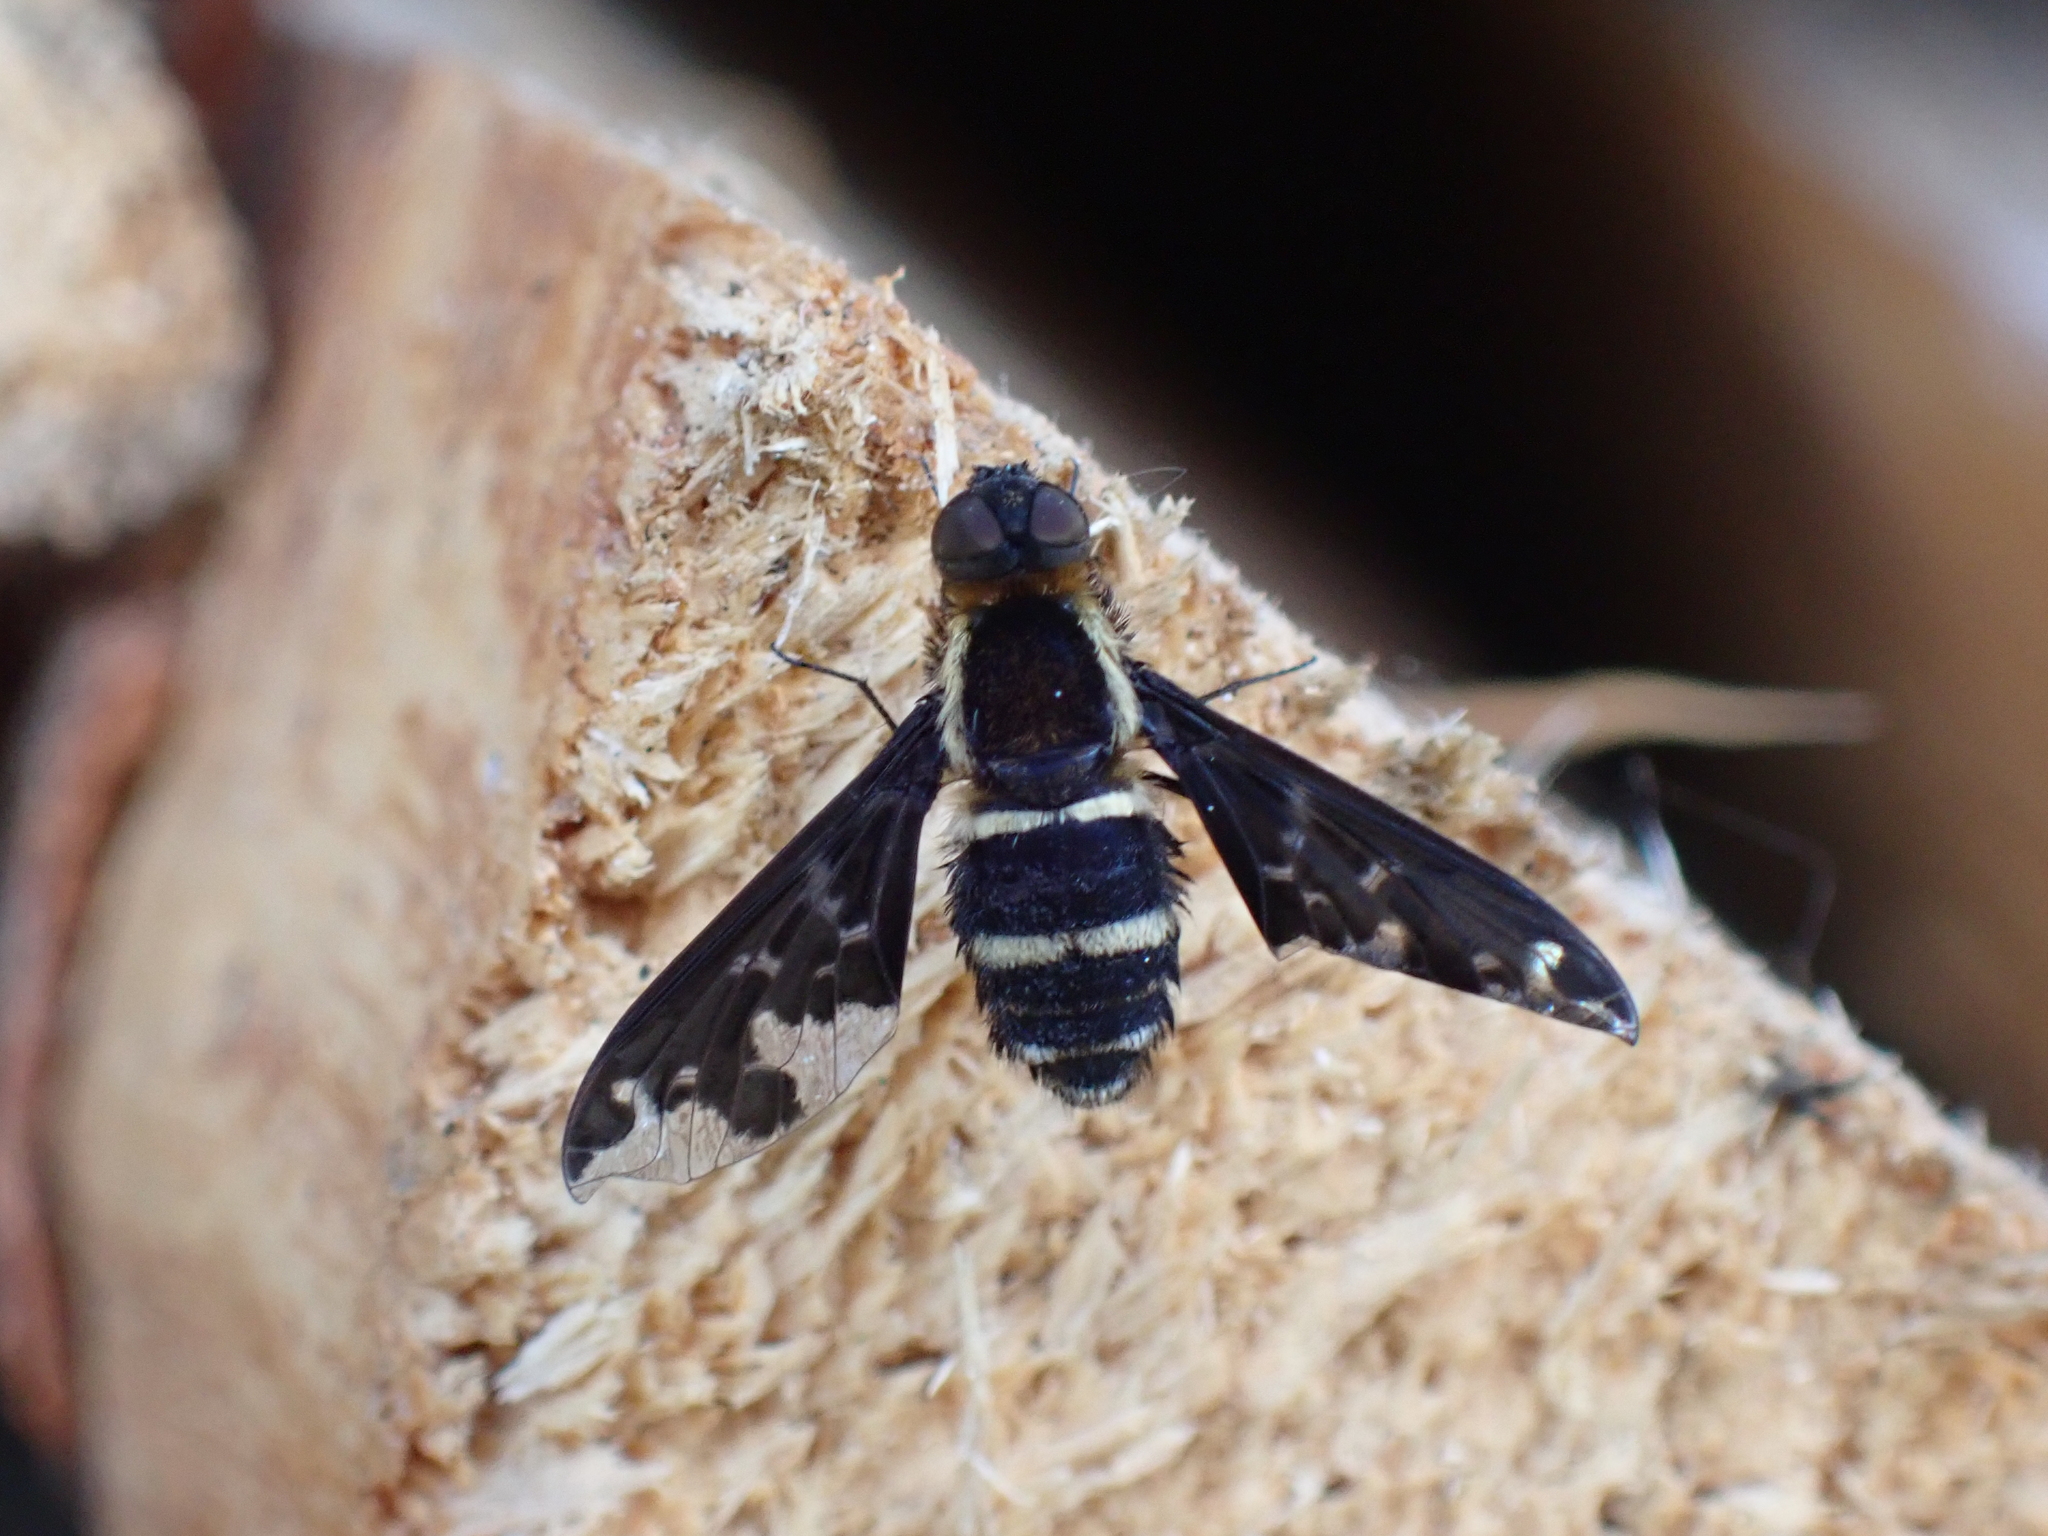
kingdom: Animalia
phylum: Arthropoda
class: Insecta
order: Diptera
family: Bombyliidae
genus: Hemipenthes
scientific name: Hemipenthes maura
